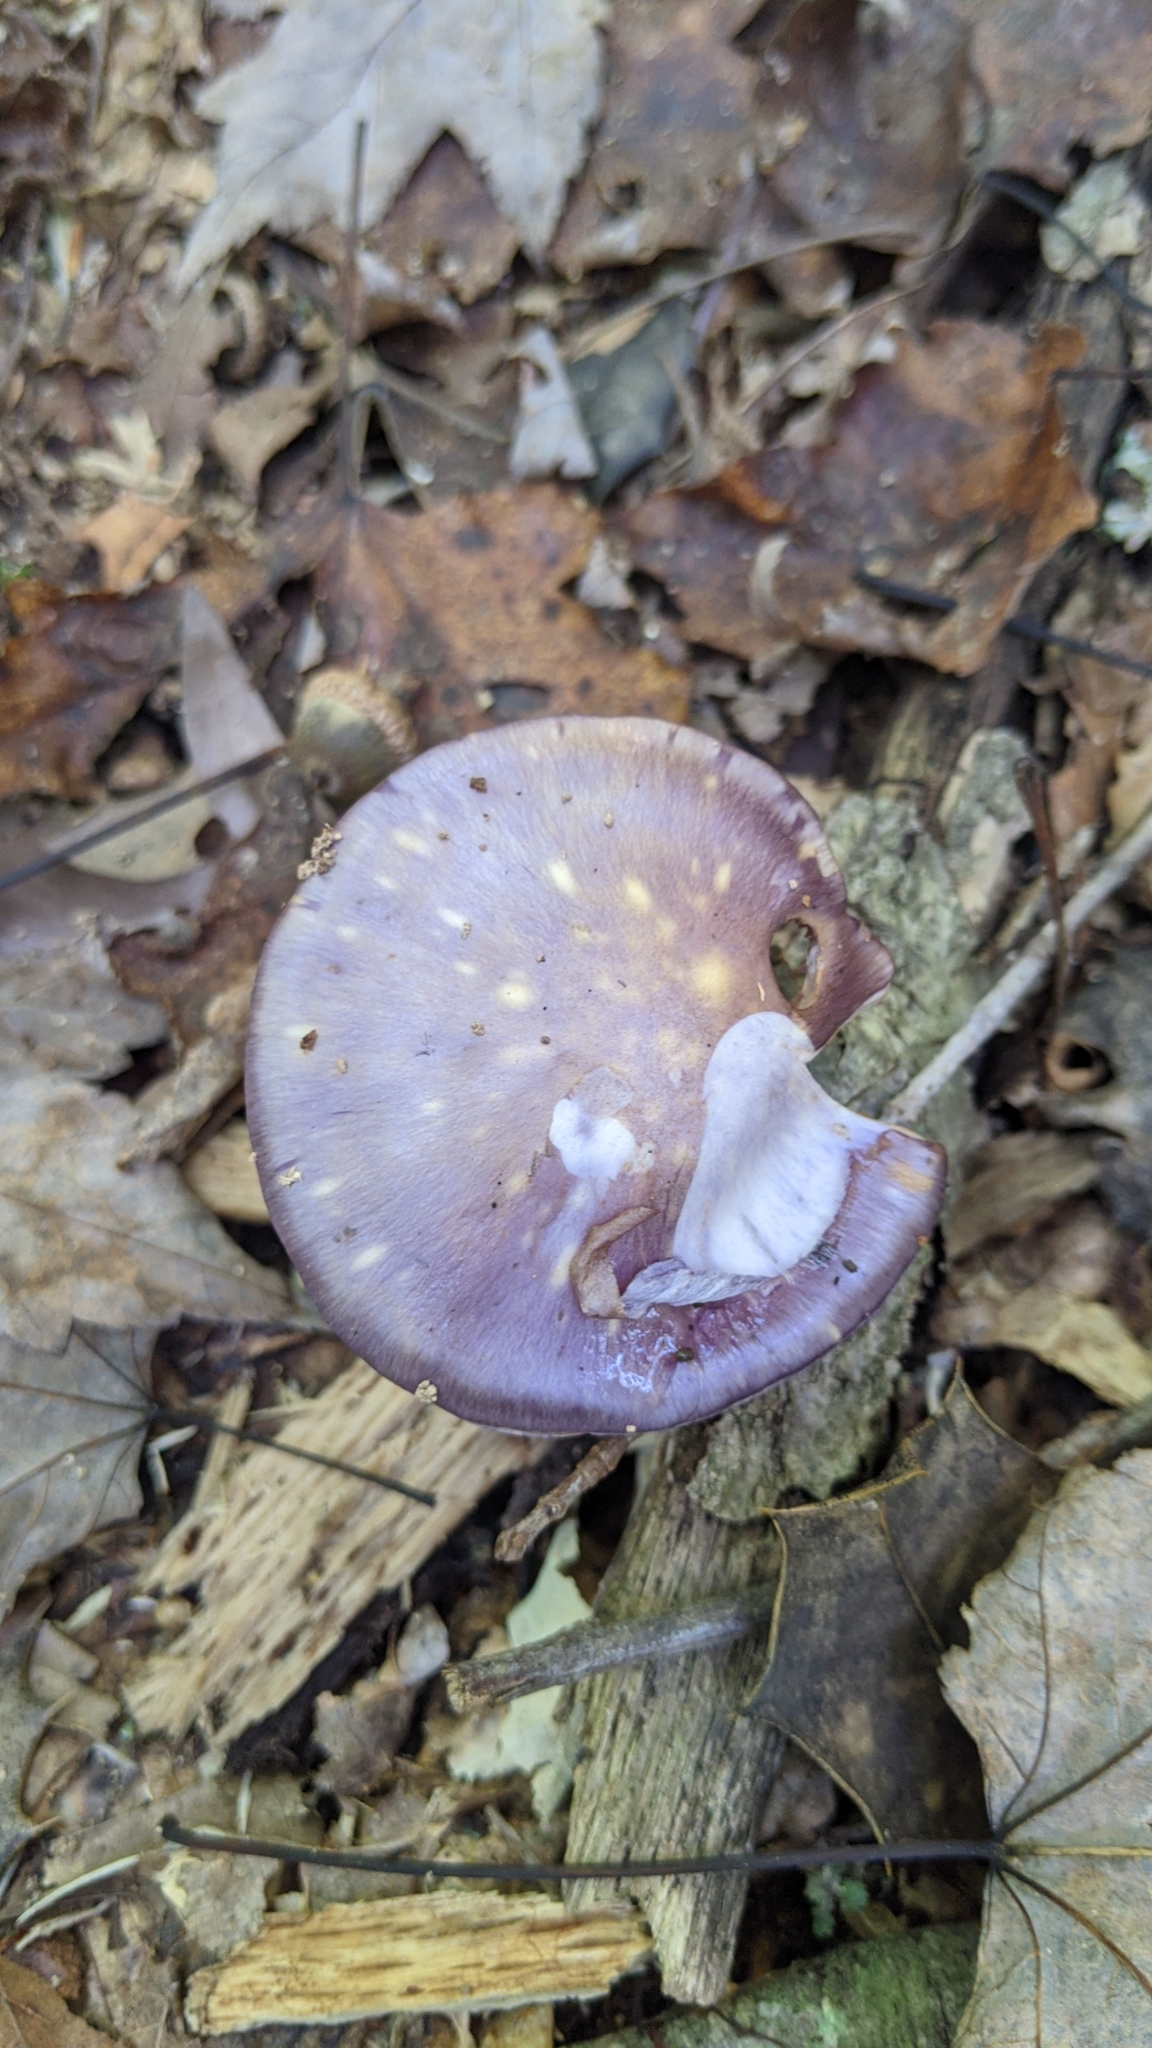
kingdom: Fungi
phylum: Basidiomycota
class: Agaricomycetes
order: Agaricales
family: Cortinariaceae
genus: Cortinarius
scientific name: Cortinarius iodes
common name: Viscid violet cort
